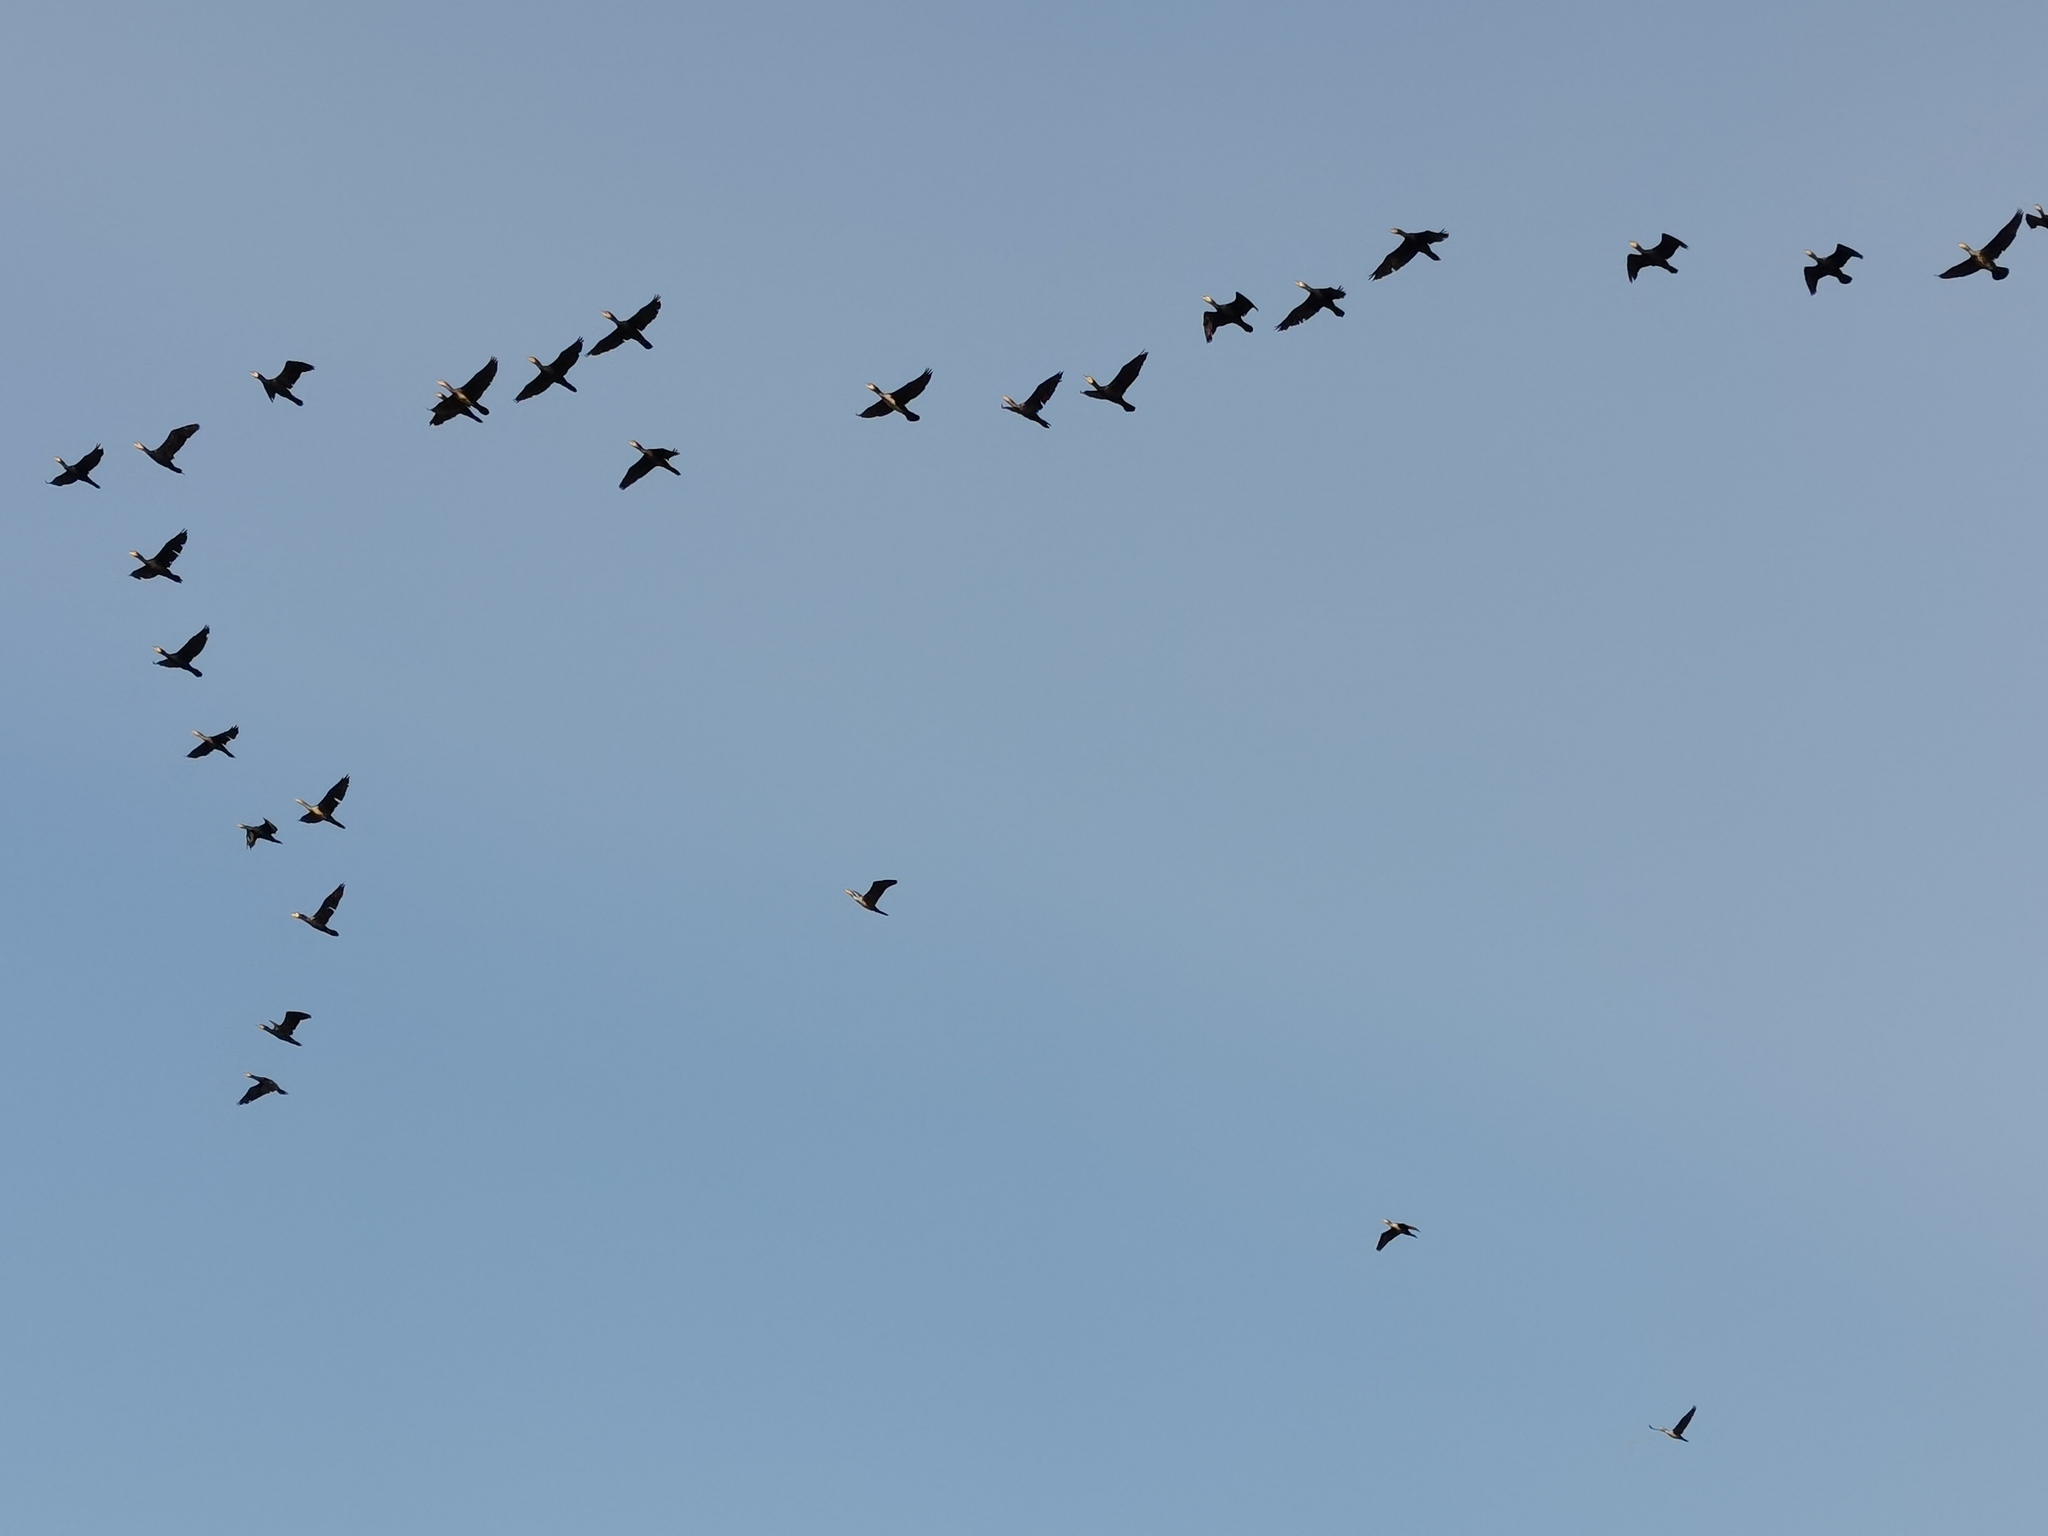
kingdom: Animalia
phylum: Chordata
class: Aves
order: Suliformes
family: Phalacrocoracidae
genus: Phalacrocorax
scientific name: Phalacrocorax carbo
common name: Great cormorant
